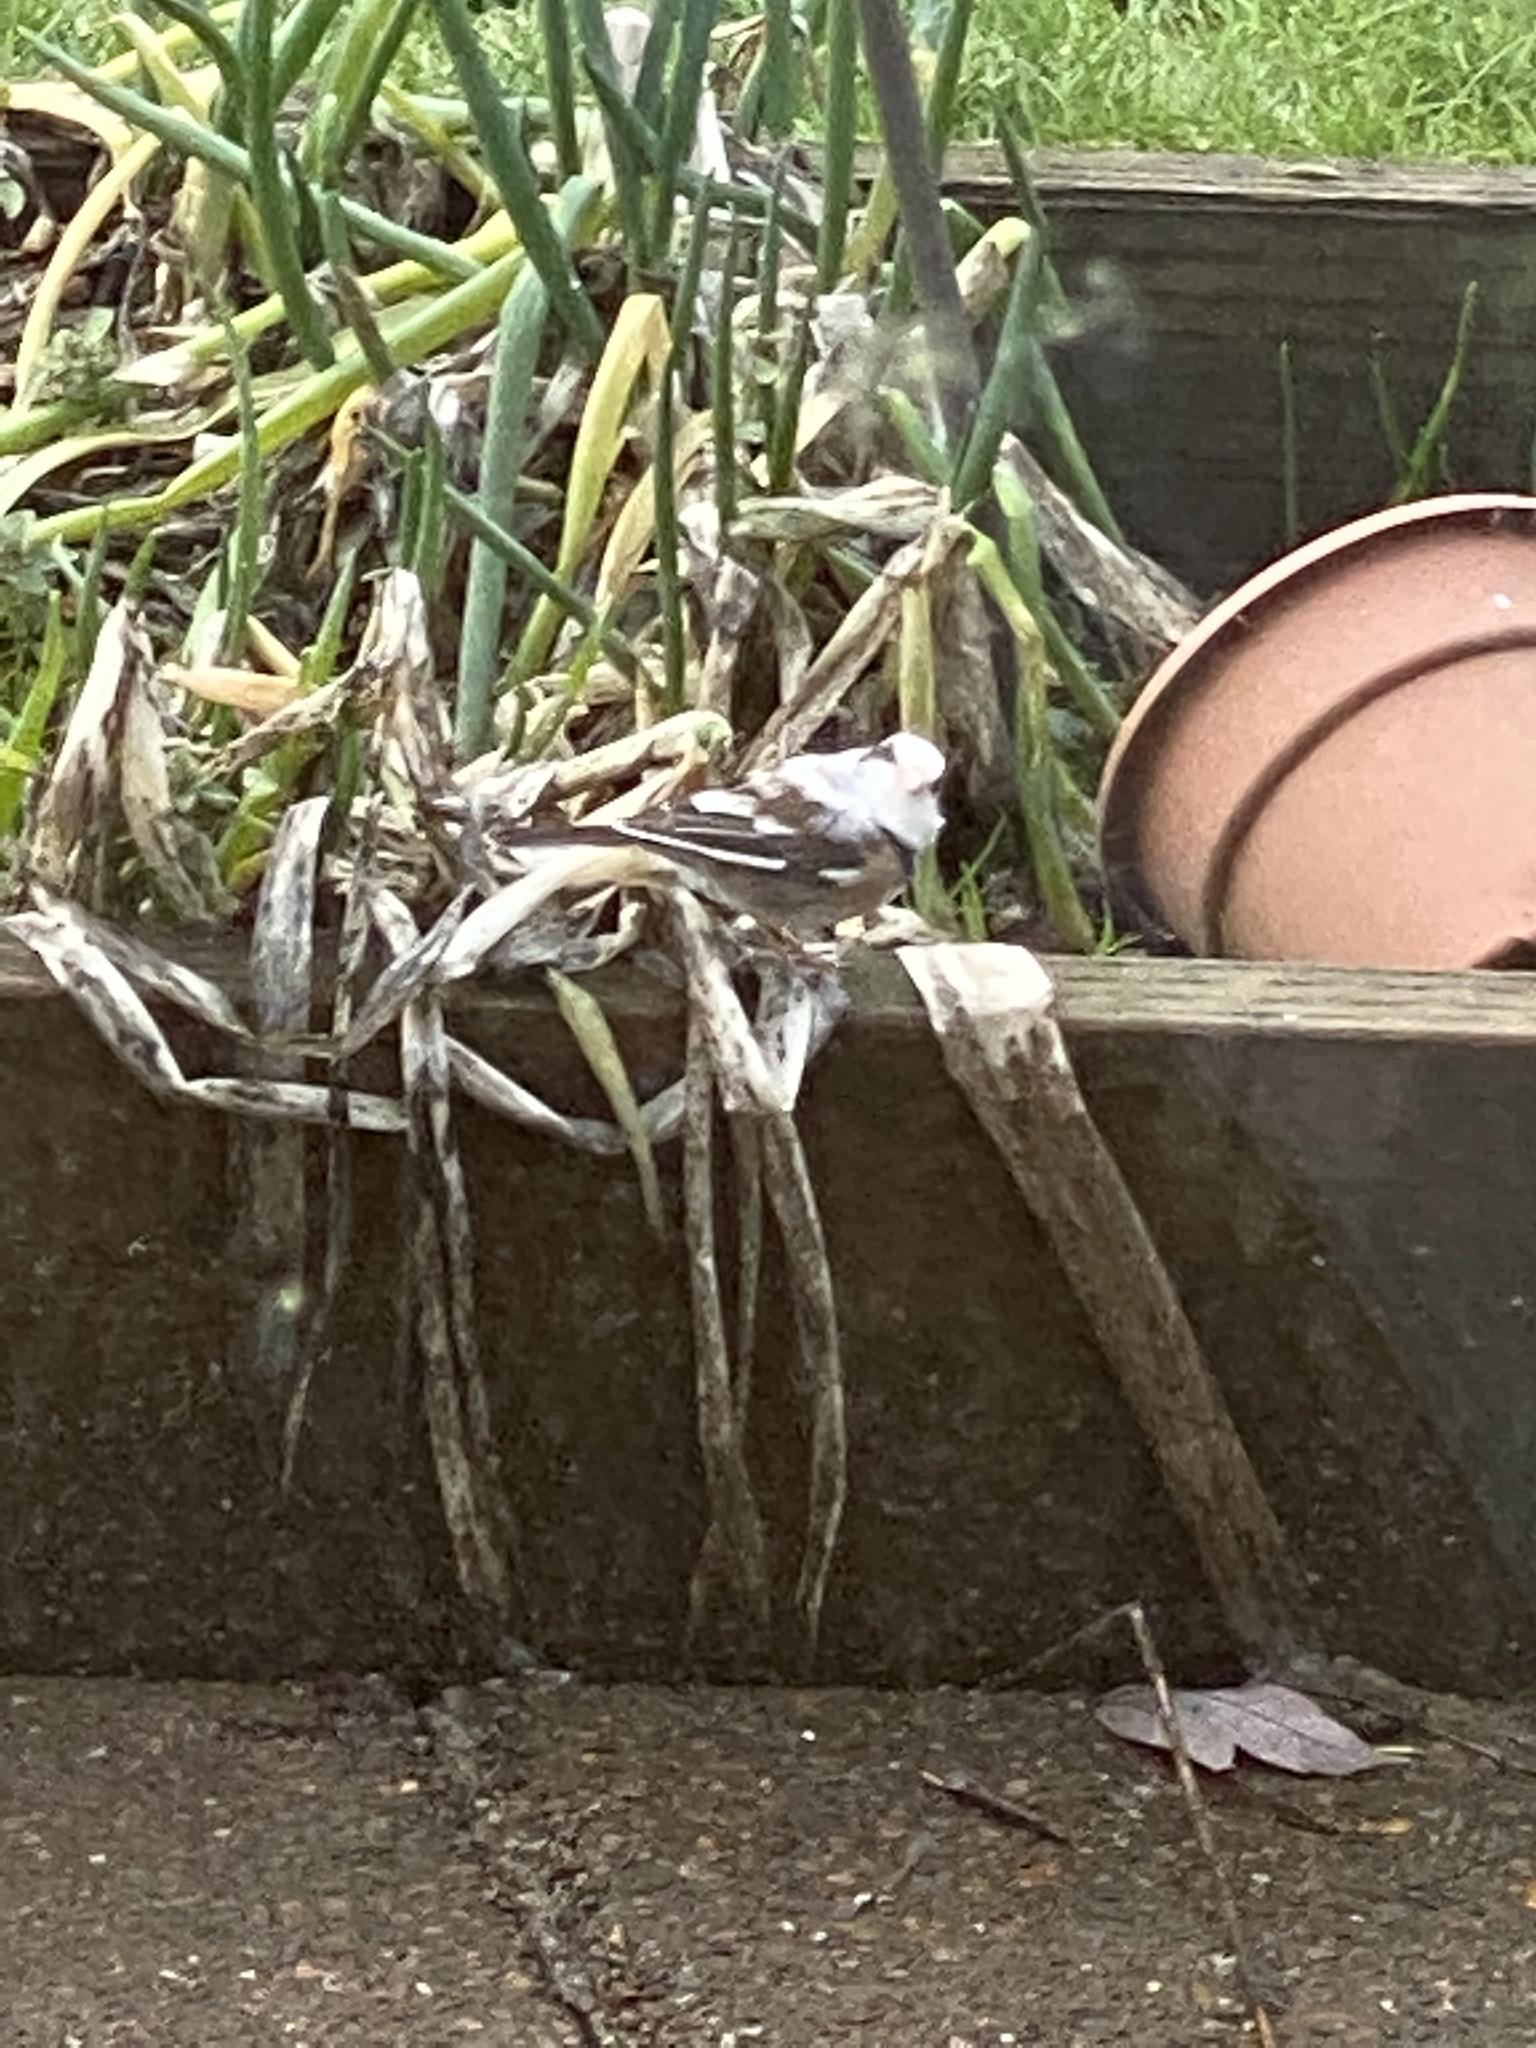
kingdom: Animalia
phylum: Chordata
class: Aves
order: Passeriformes
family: Passerellidae
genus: Junco
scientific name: Junco hyemalis
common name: Dark-eyed junco
